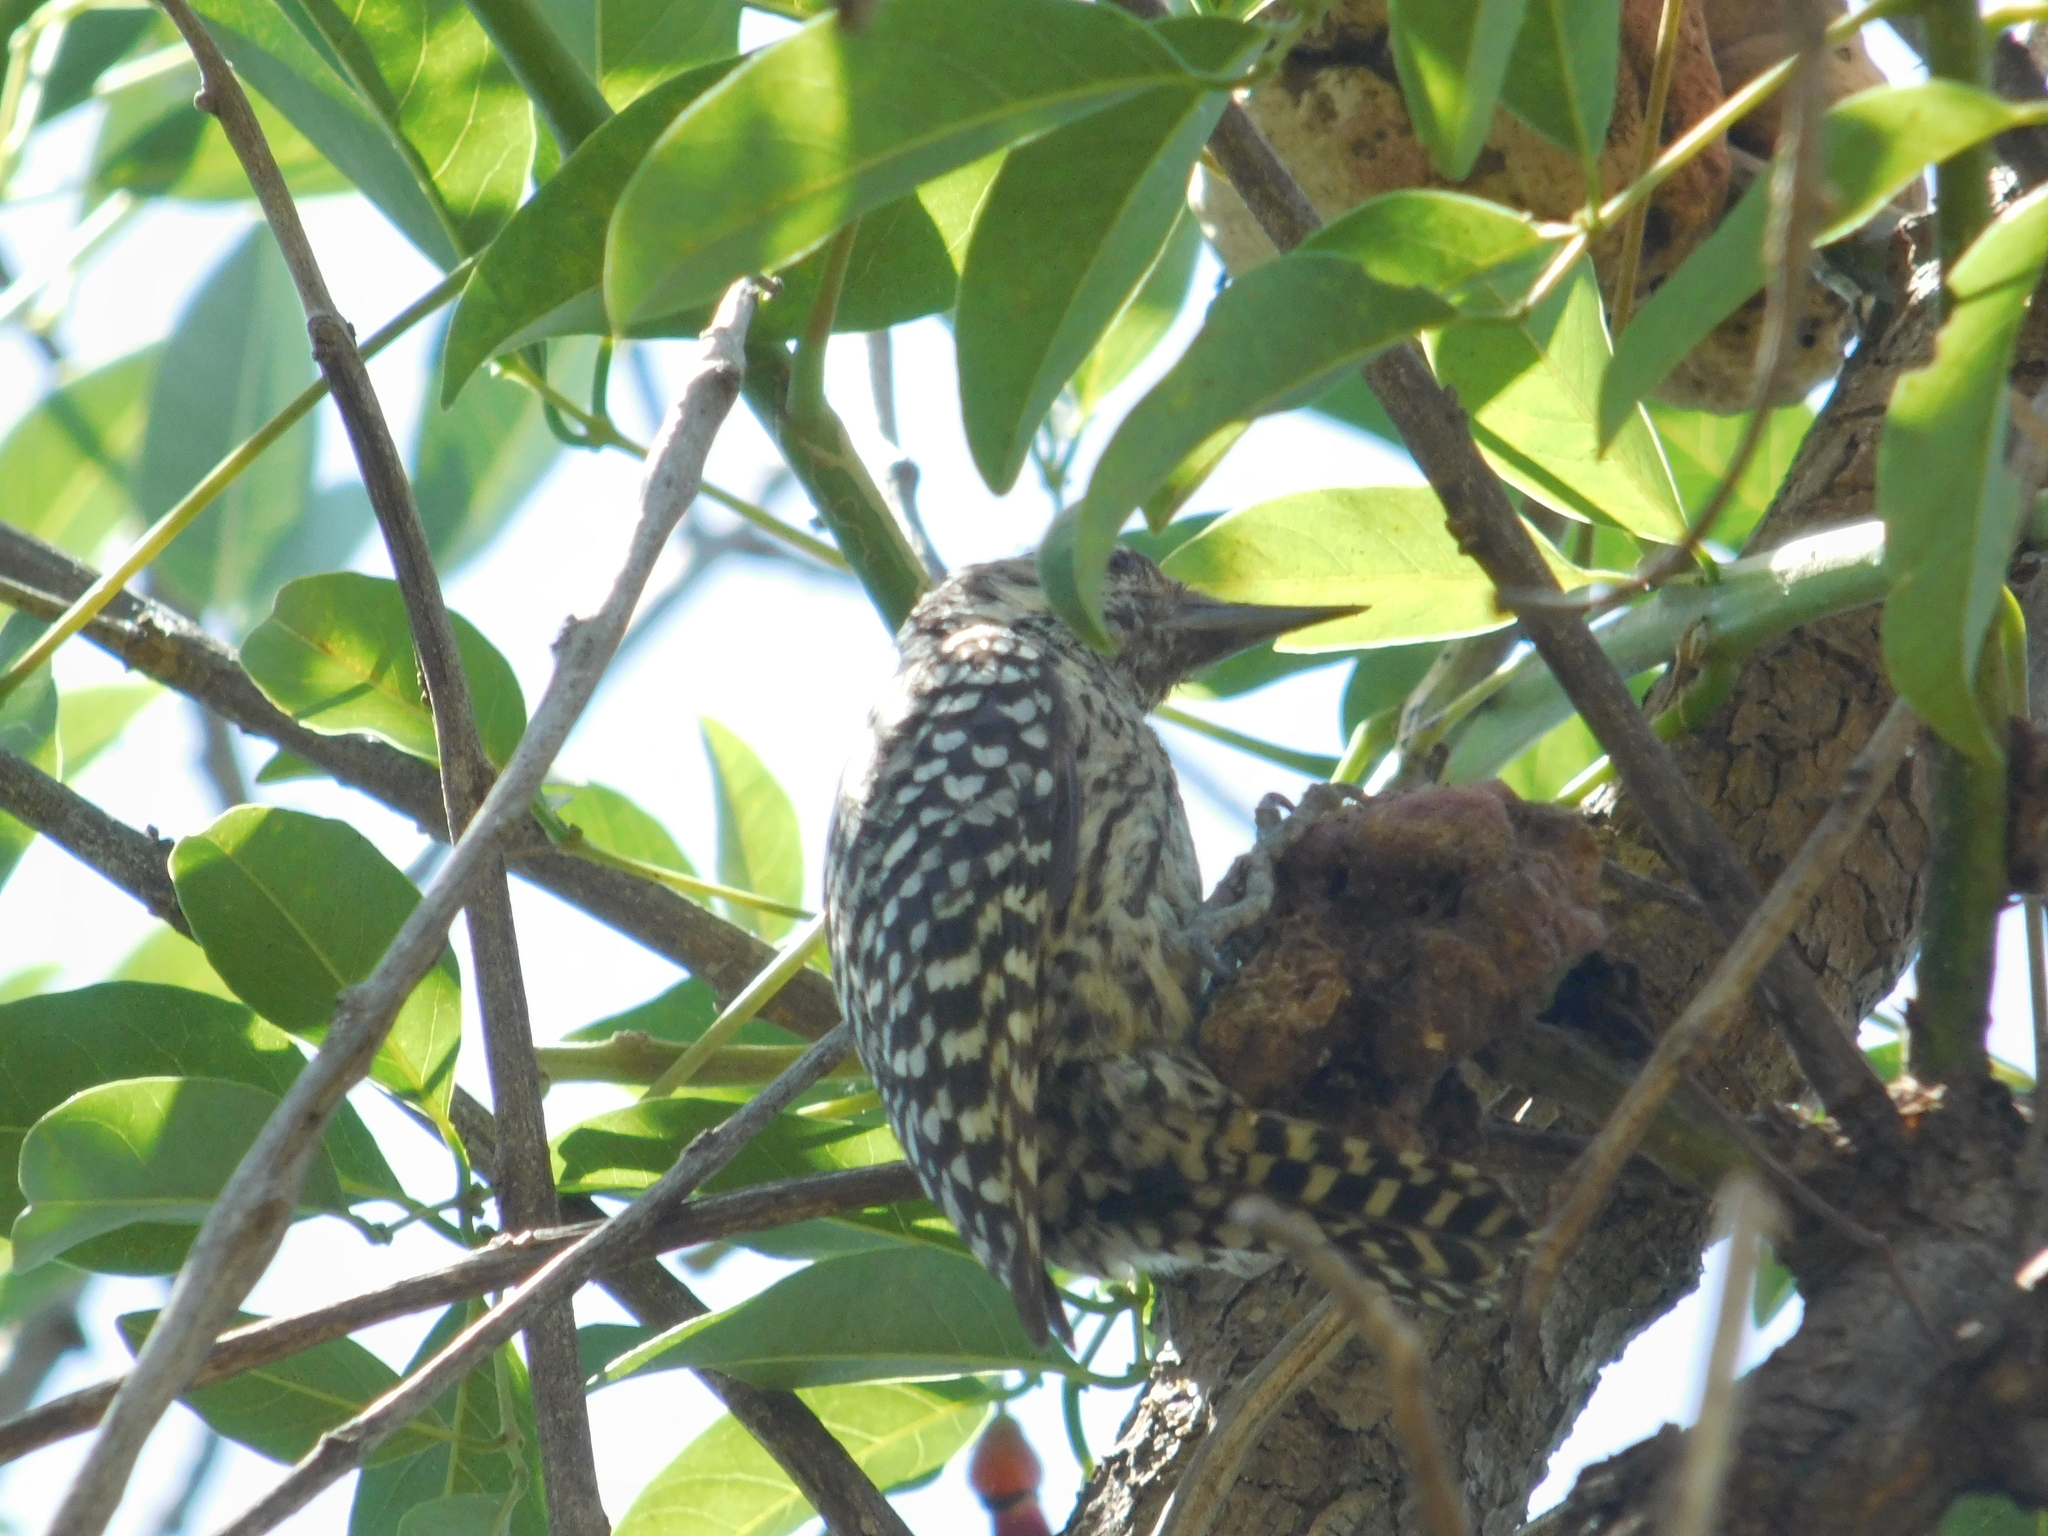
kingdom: Animalia
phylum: Chordata
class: Aves
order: Piciformes
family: Picidae
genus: Veniliornis
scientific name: Veniliornis mixtus
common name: Checkered woodpecker
